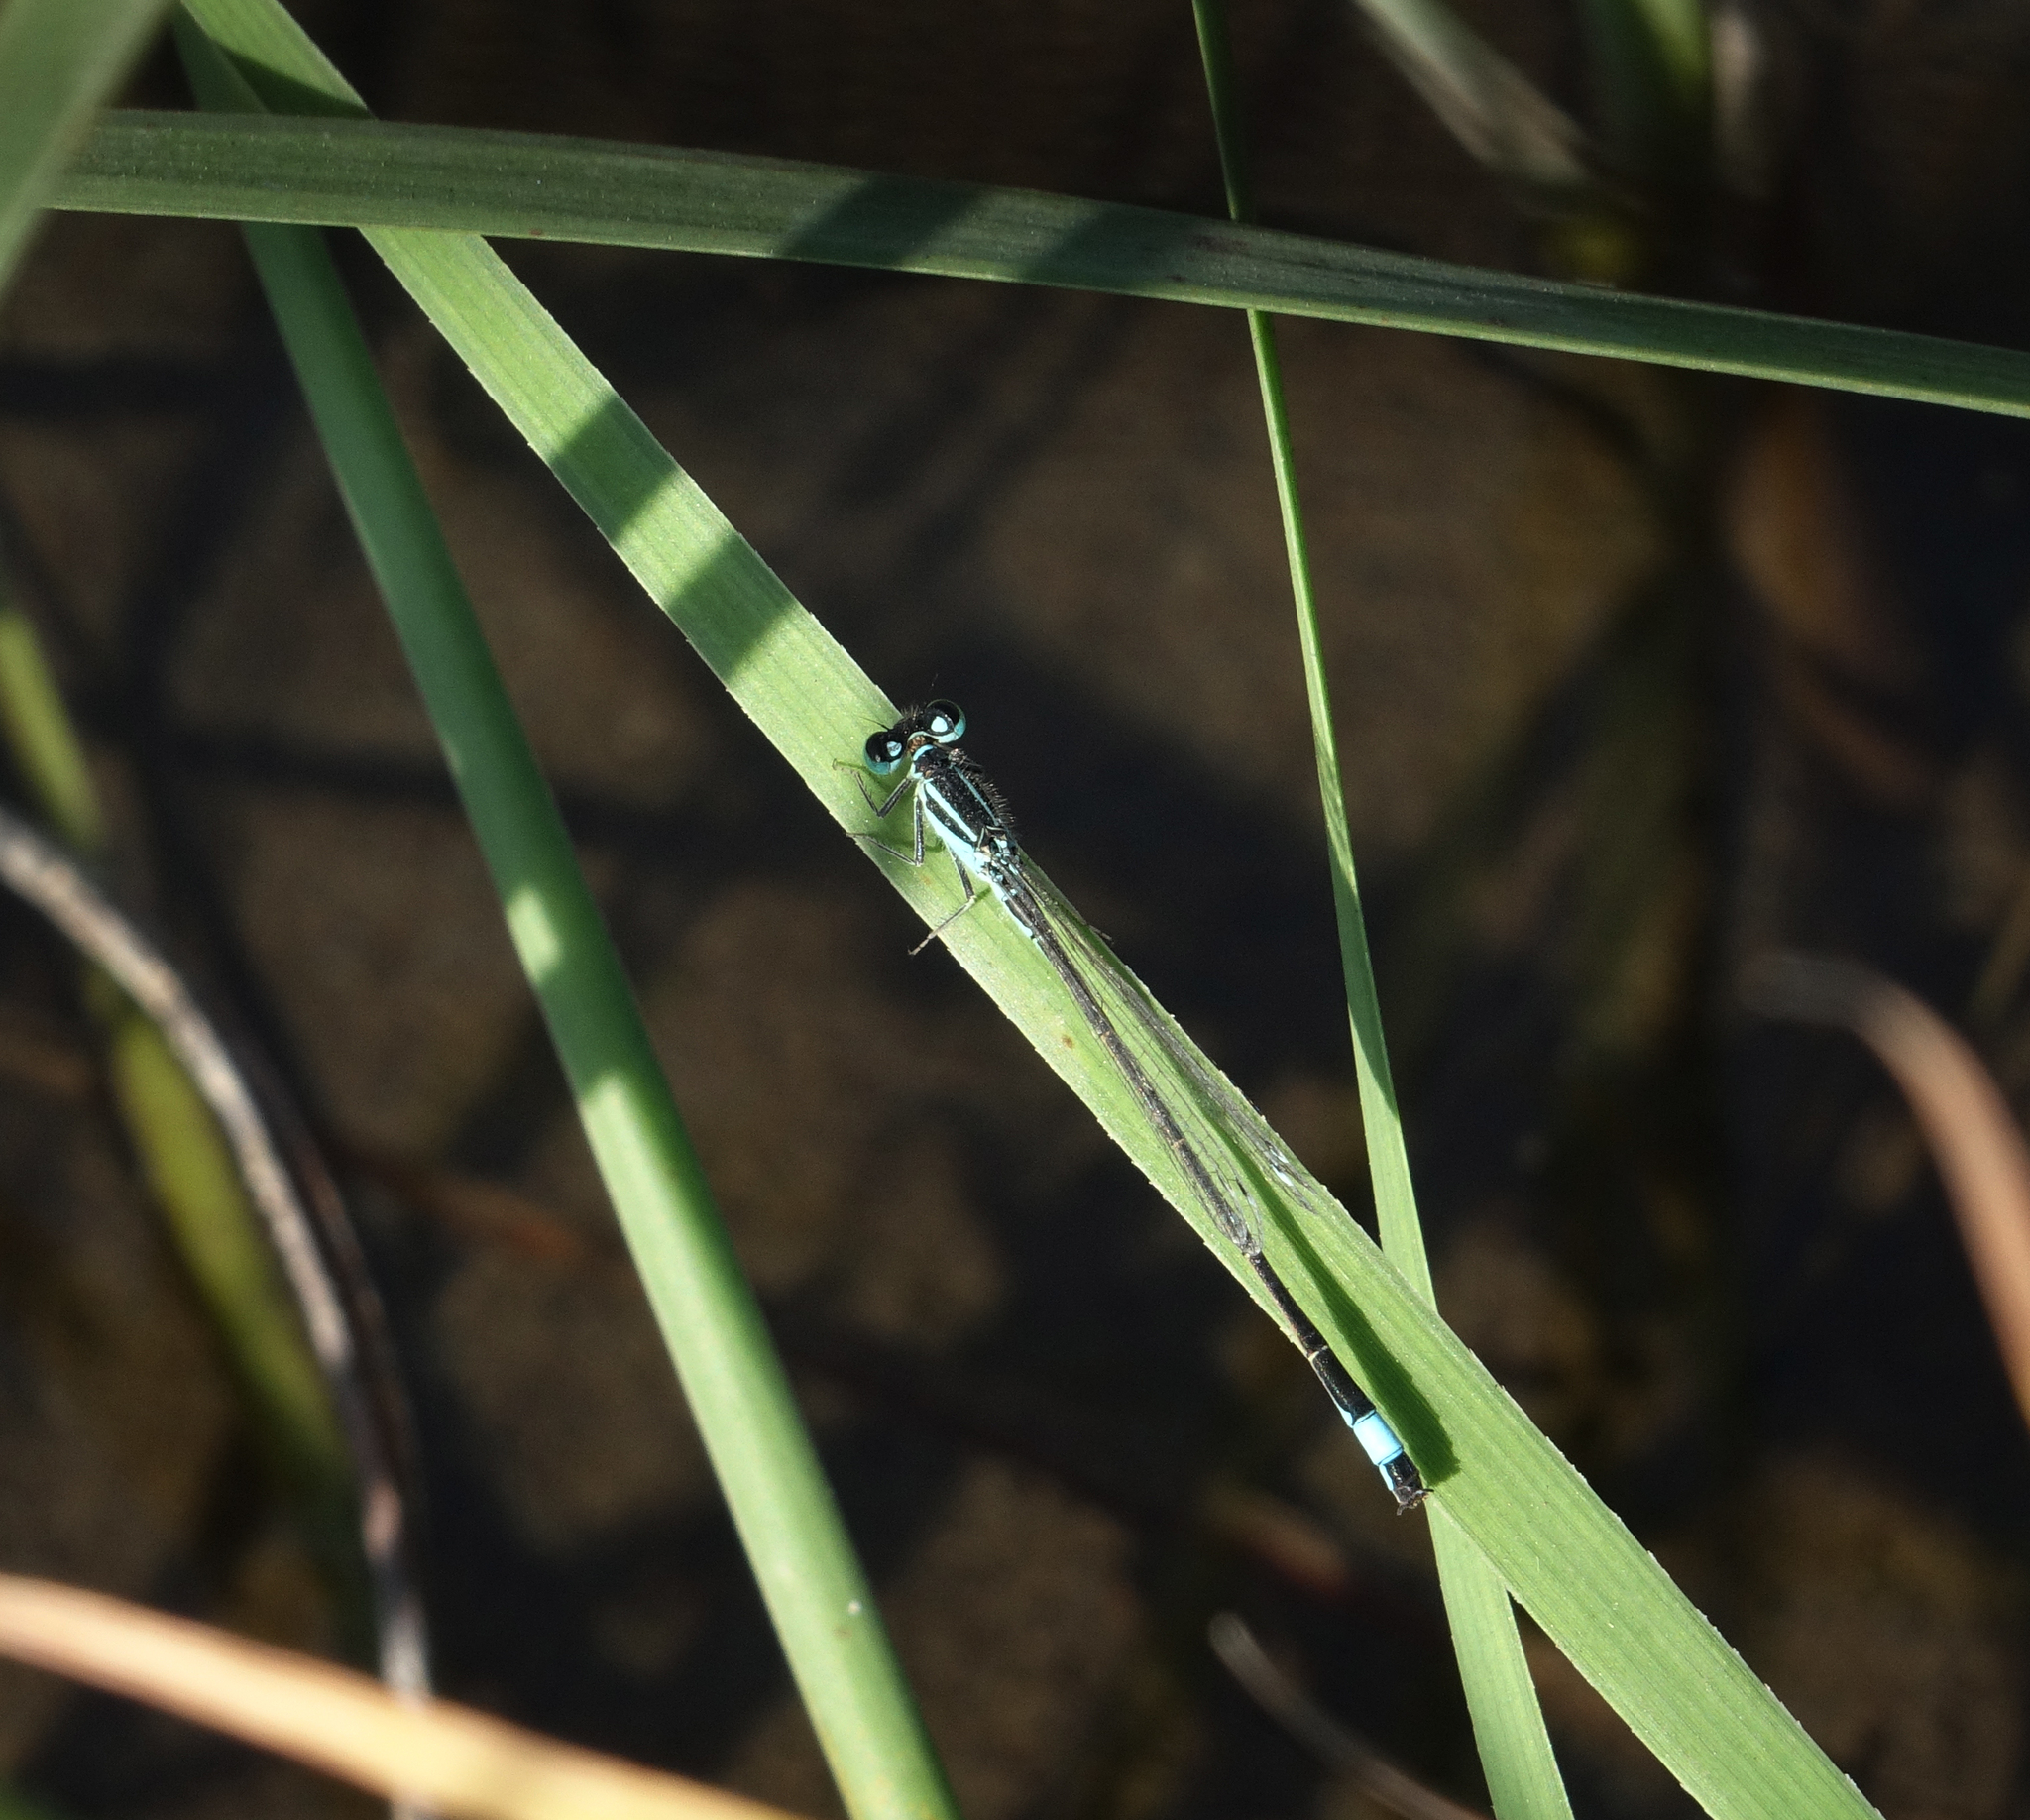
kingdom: Animalia
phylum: Arthropoda
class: Insecta
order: Odonata
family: Coenagrionidae
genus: Ischnura
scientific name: Ischnura elegans
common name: Blue-tailed damselfly
